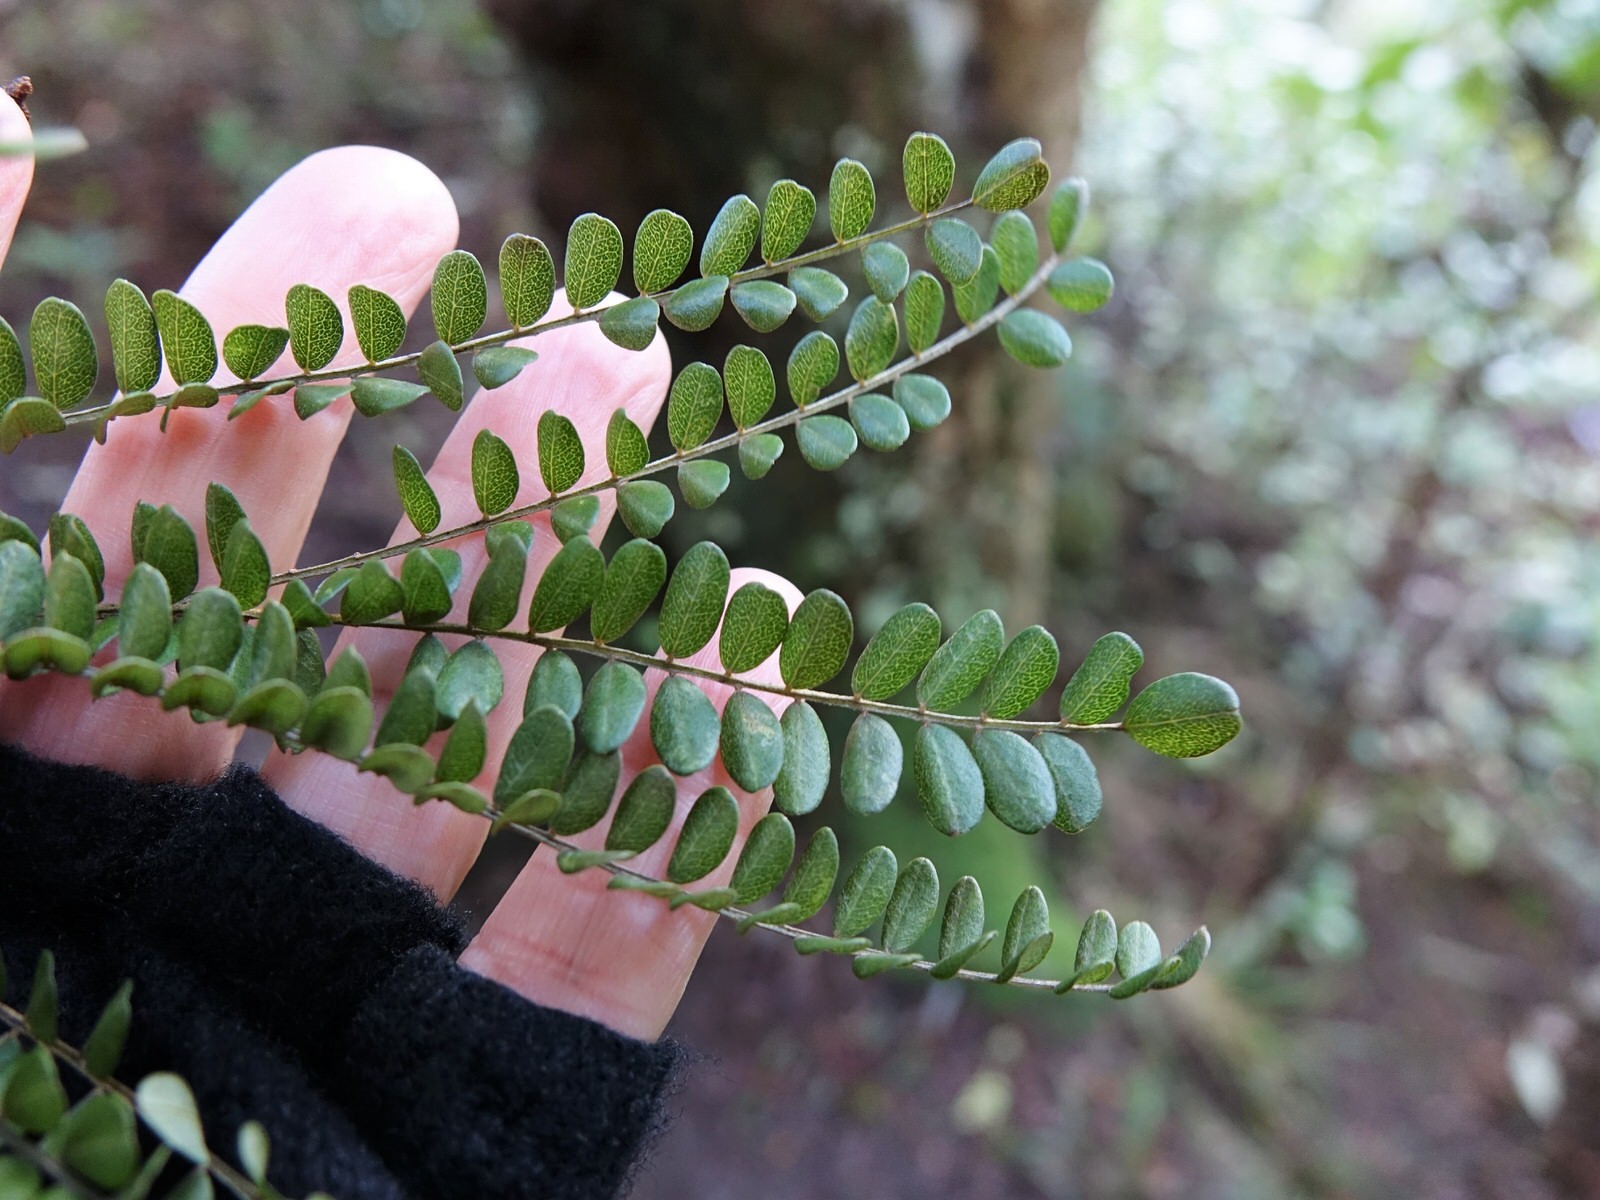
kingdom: Plantae
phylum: Tracheophyta
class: Magnoliopsida
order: Fabales
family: Fabaceae
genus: Sophora
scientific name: Sophora microphylla
